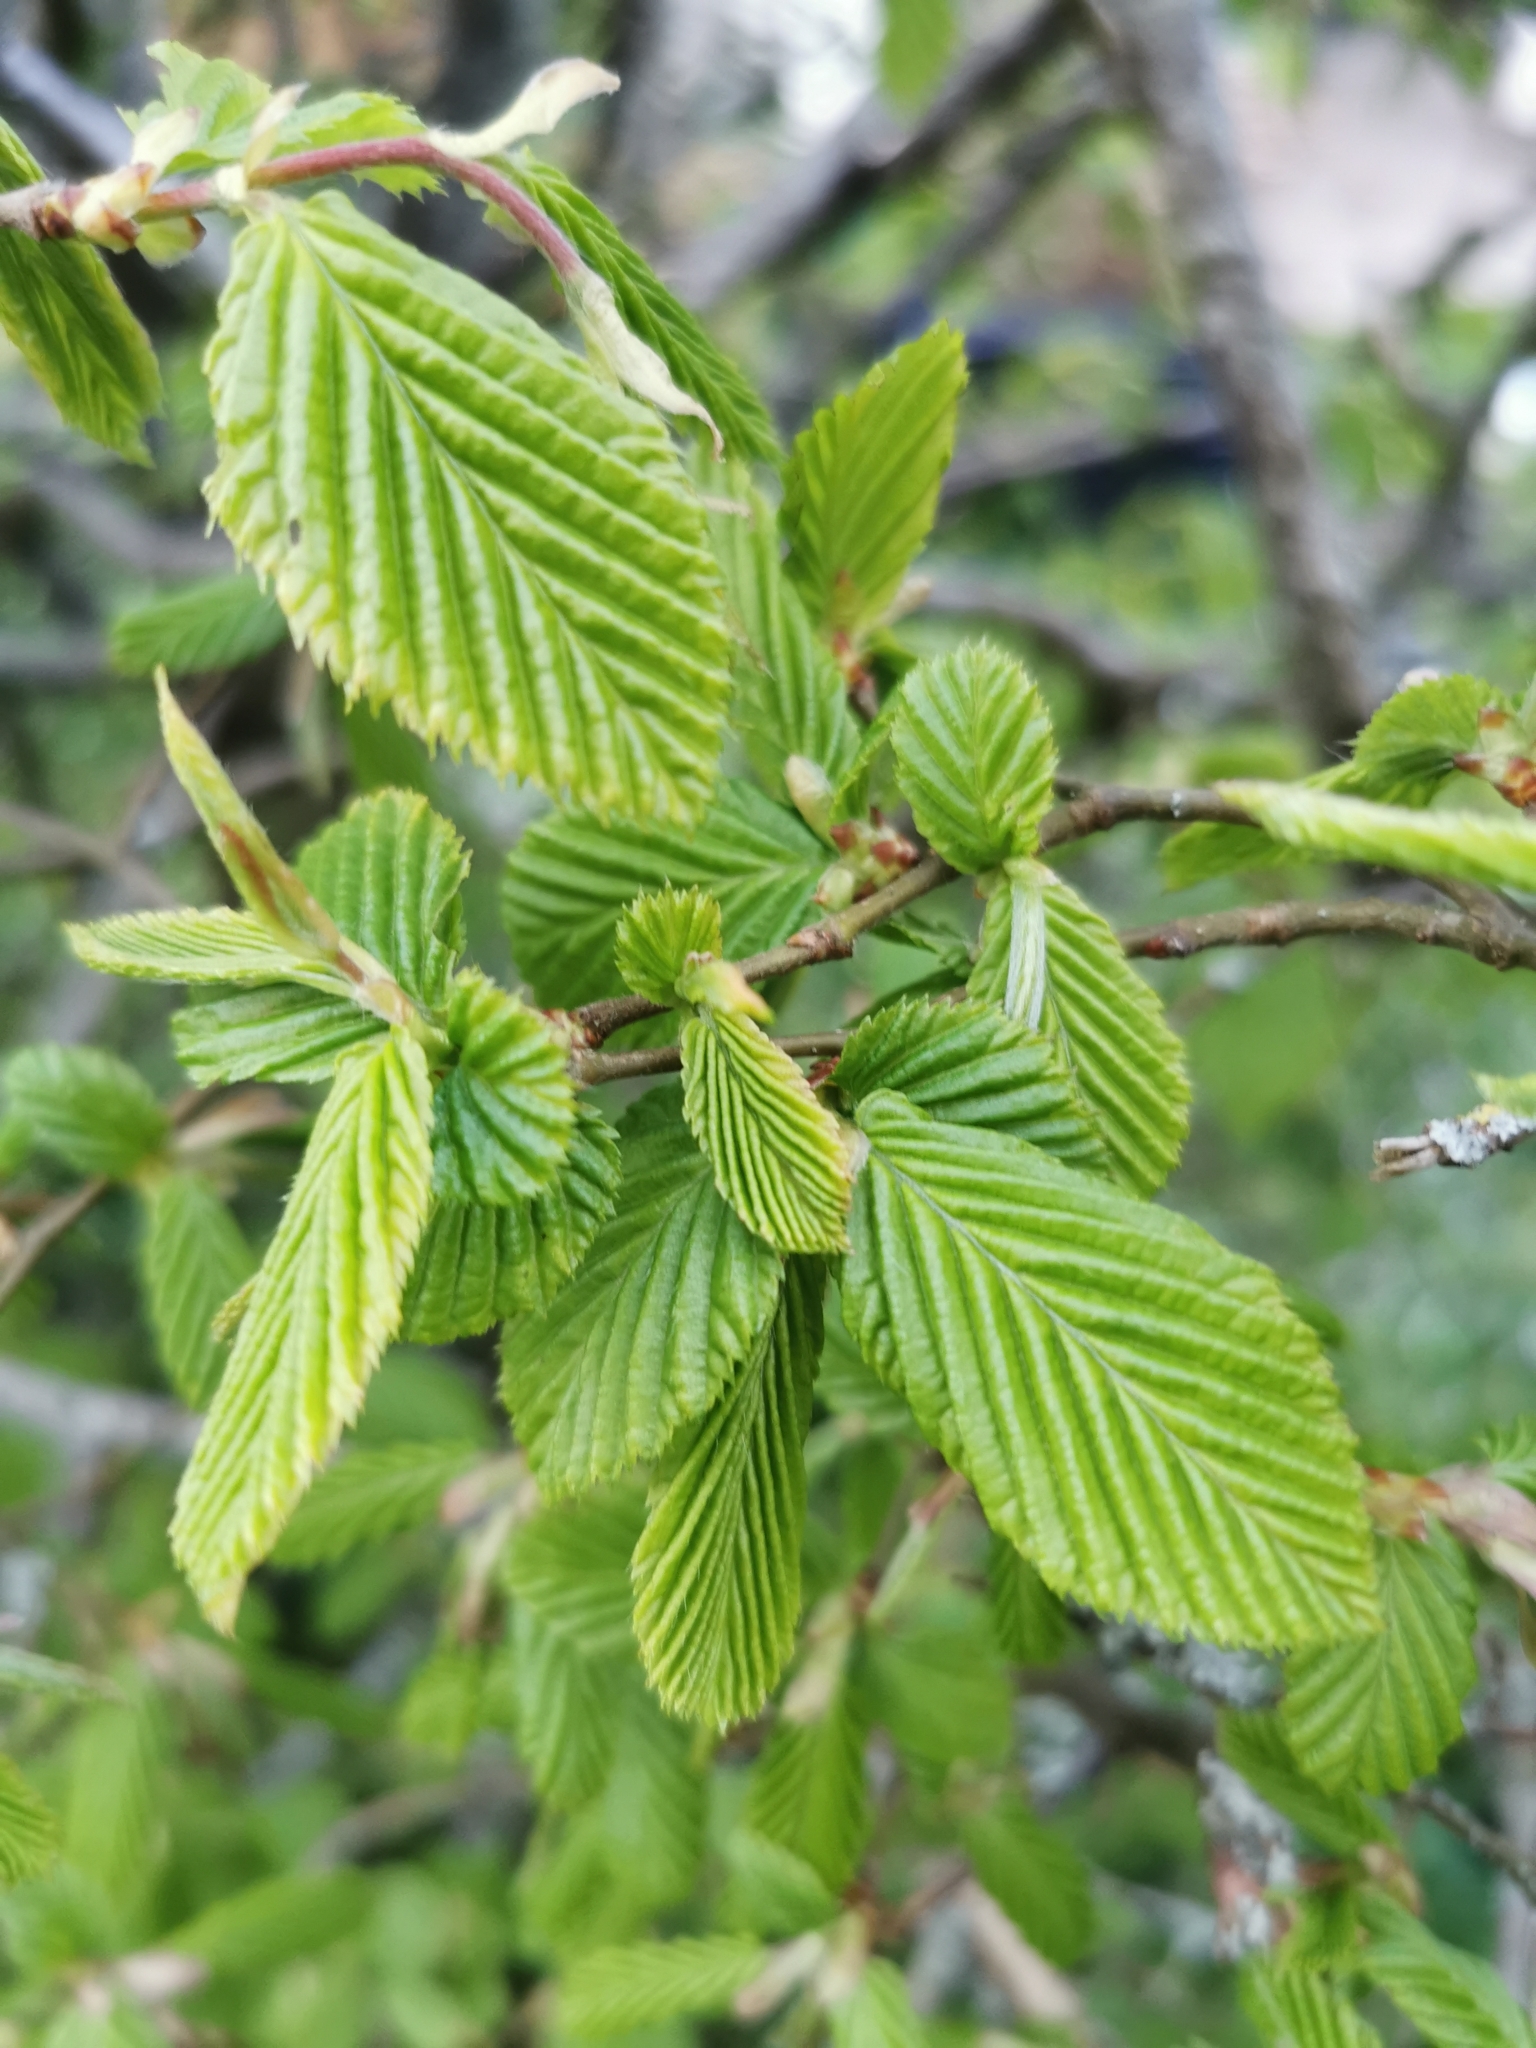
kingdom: Plantae
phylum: Tracheophyta
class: Magnoliopsida
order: Fagales
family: Betulaceae
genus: Carpinus
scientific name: Carpinus betulus
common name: Hornbeam
